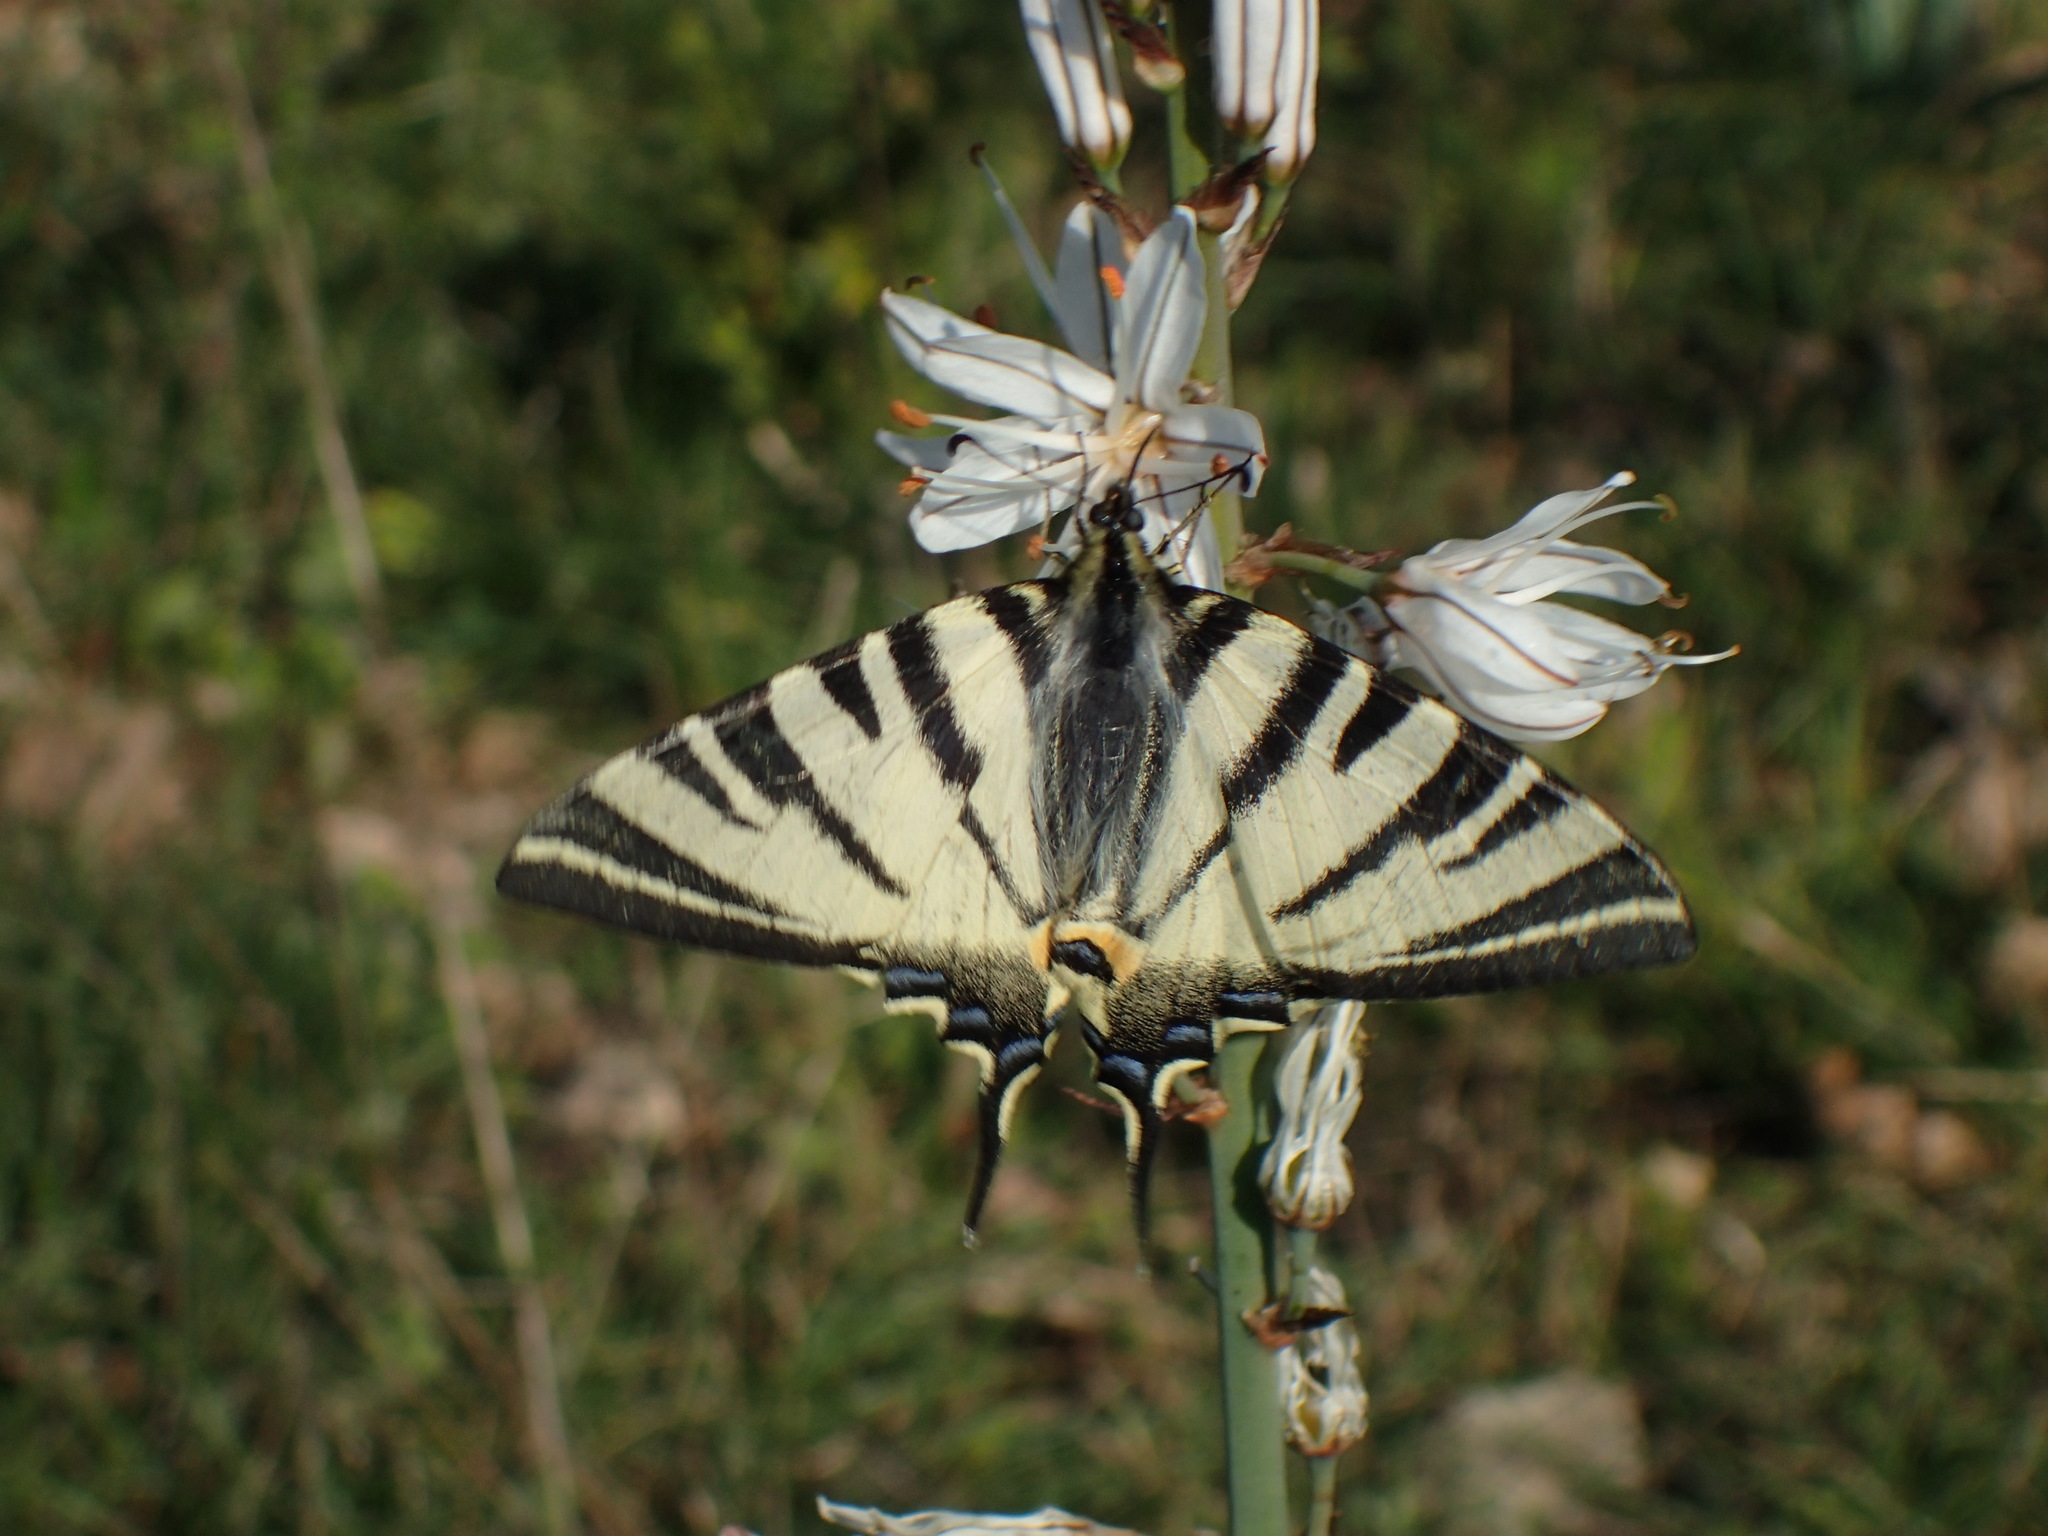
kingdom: Animalia
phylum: Arthropoda
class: Insecta
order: Lepidoptera
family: Papilionidae
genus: Iphiclides
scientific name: Iphiclides podalirius
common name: Scarce swallowtail
